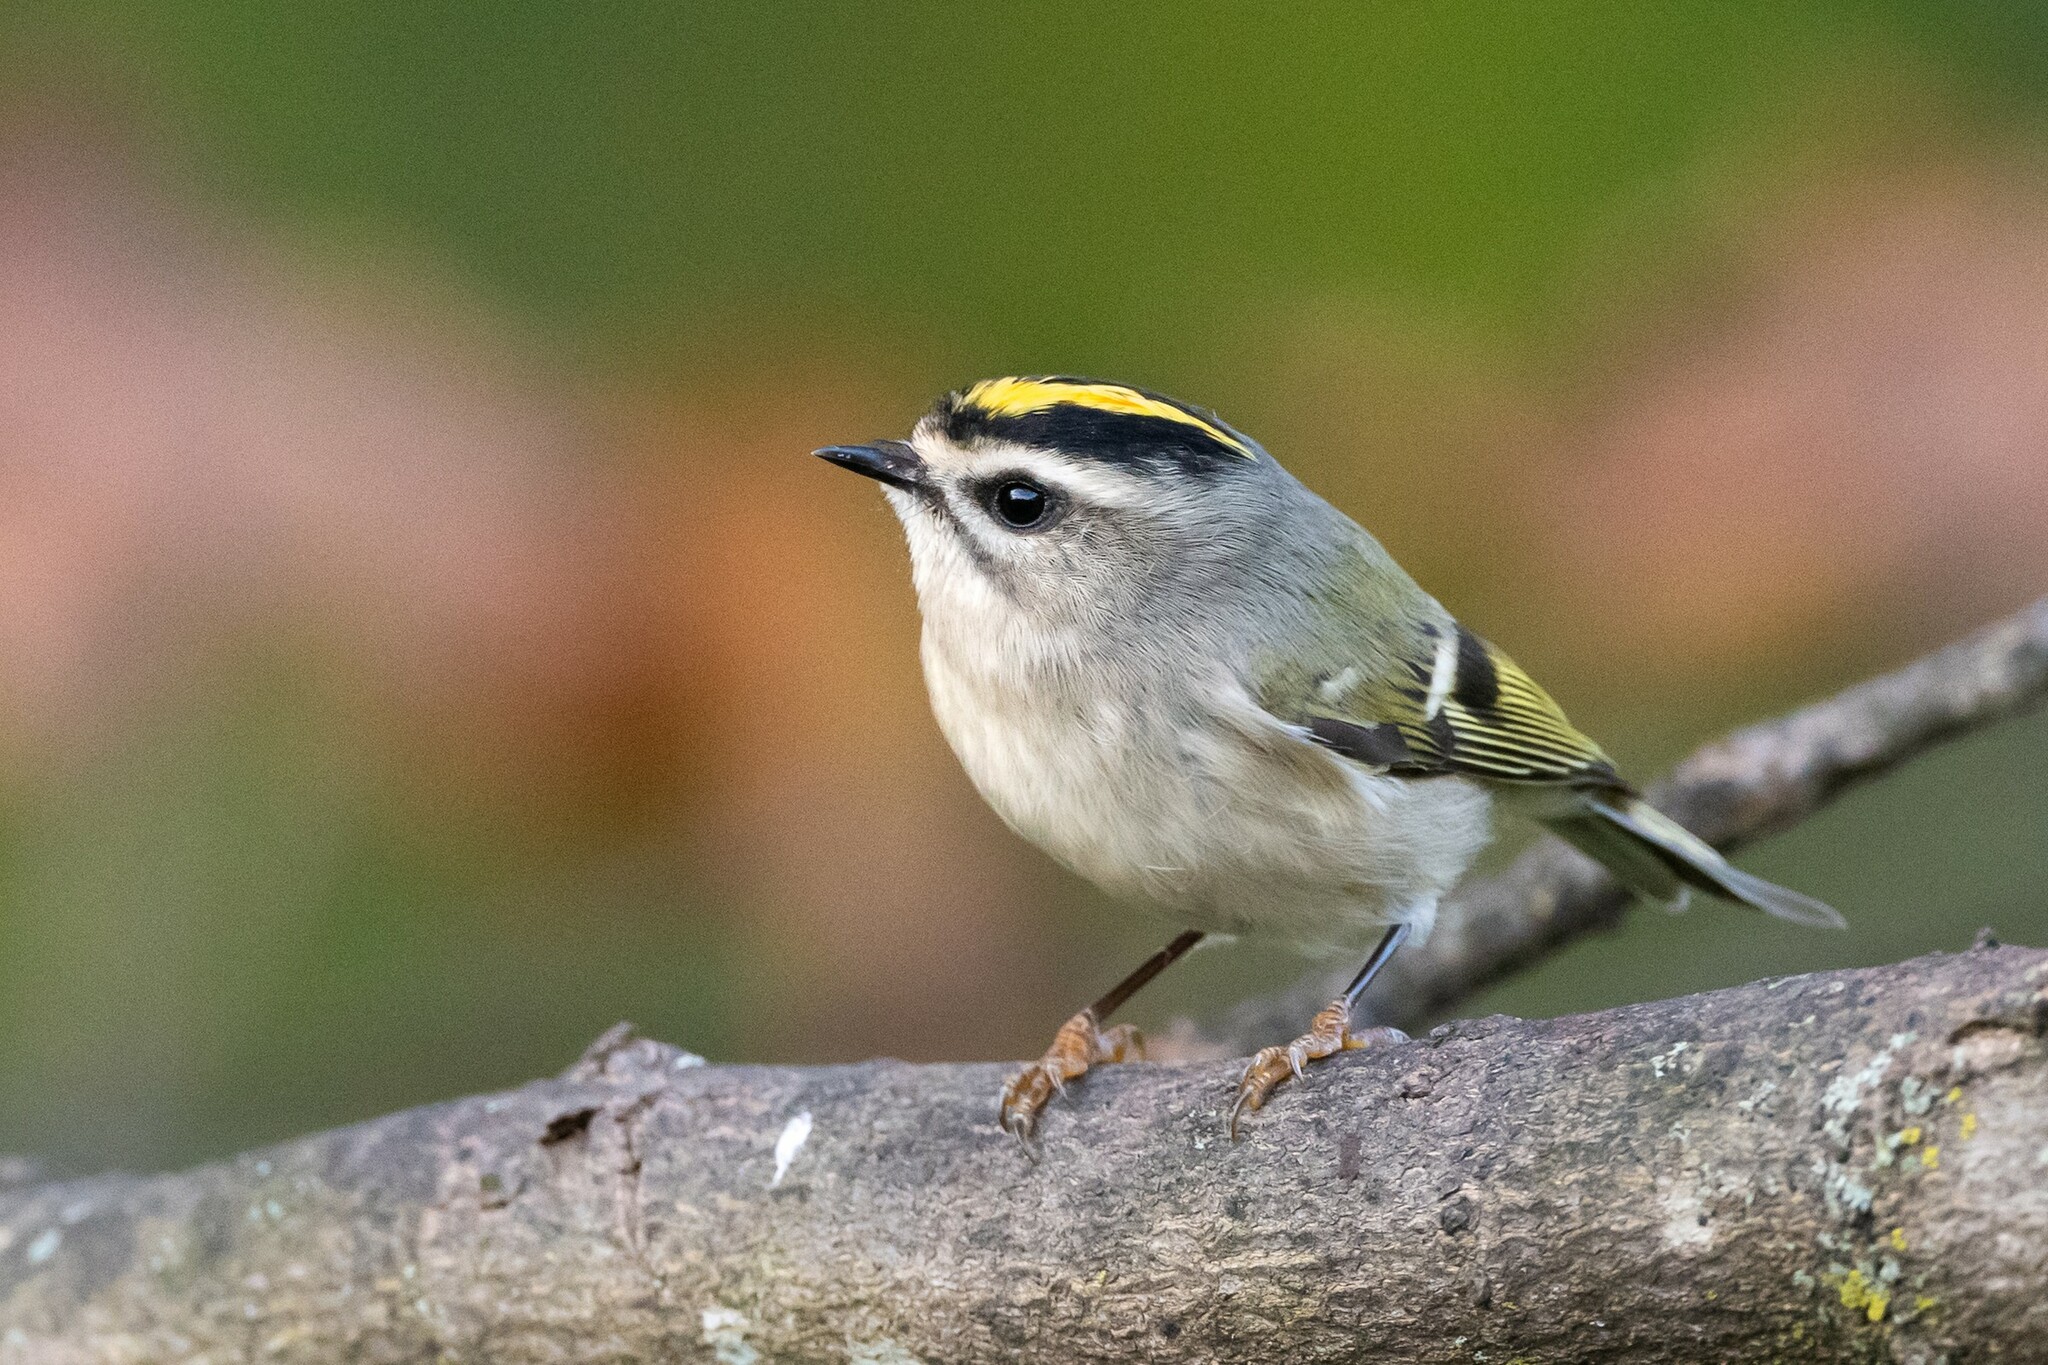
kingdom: Animalia
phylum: Chordata
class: Aves
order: Passeriformes
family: Regulidae
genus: Regulus
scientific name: Regulus satrapa
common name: Golden-crowned kinglet
